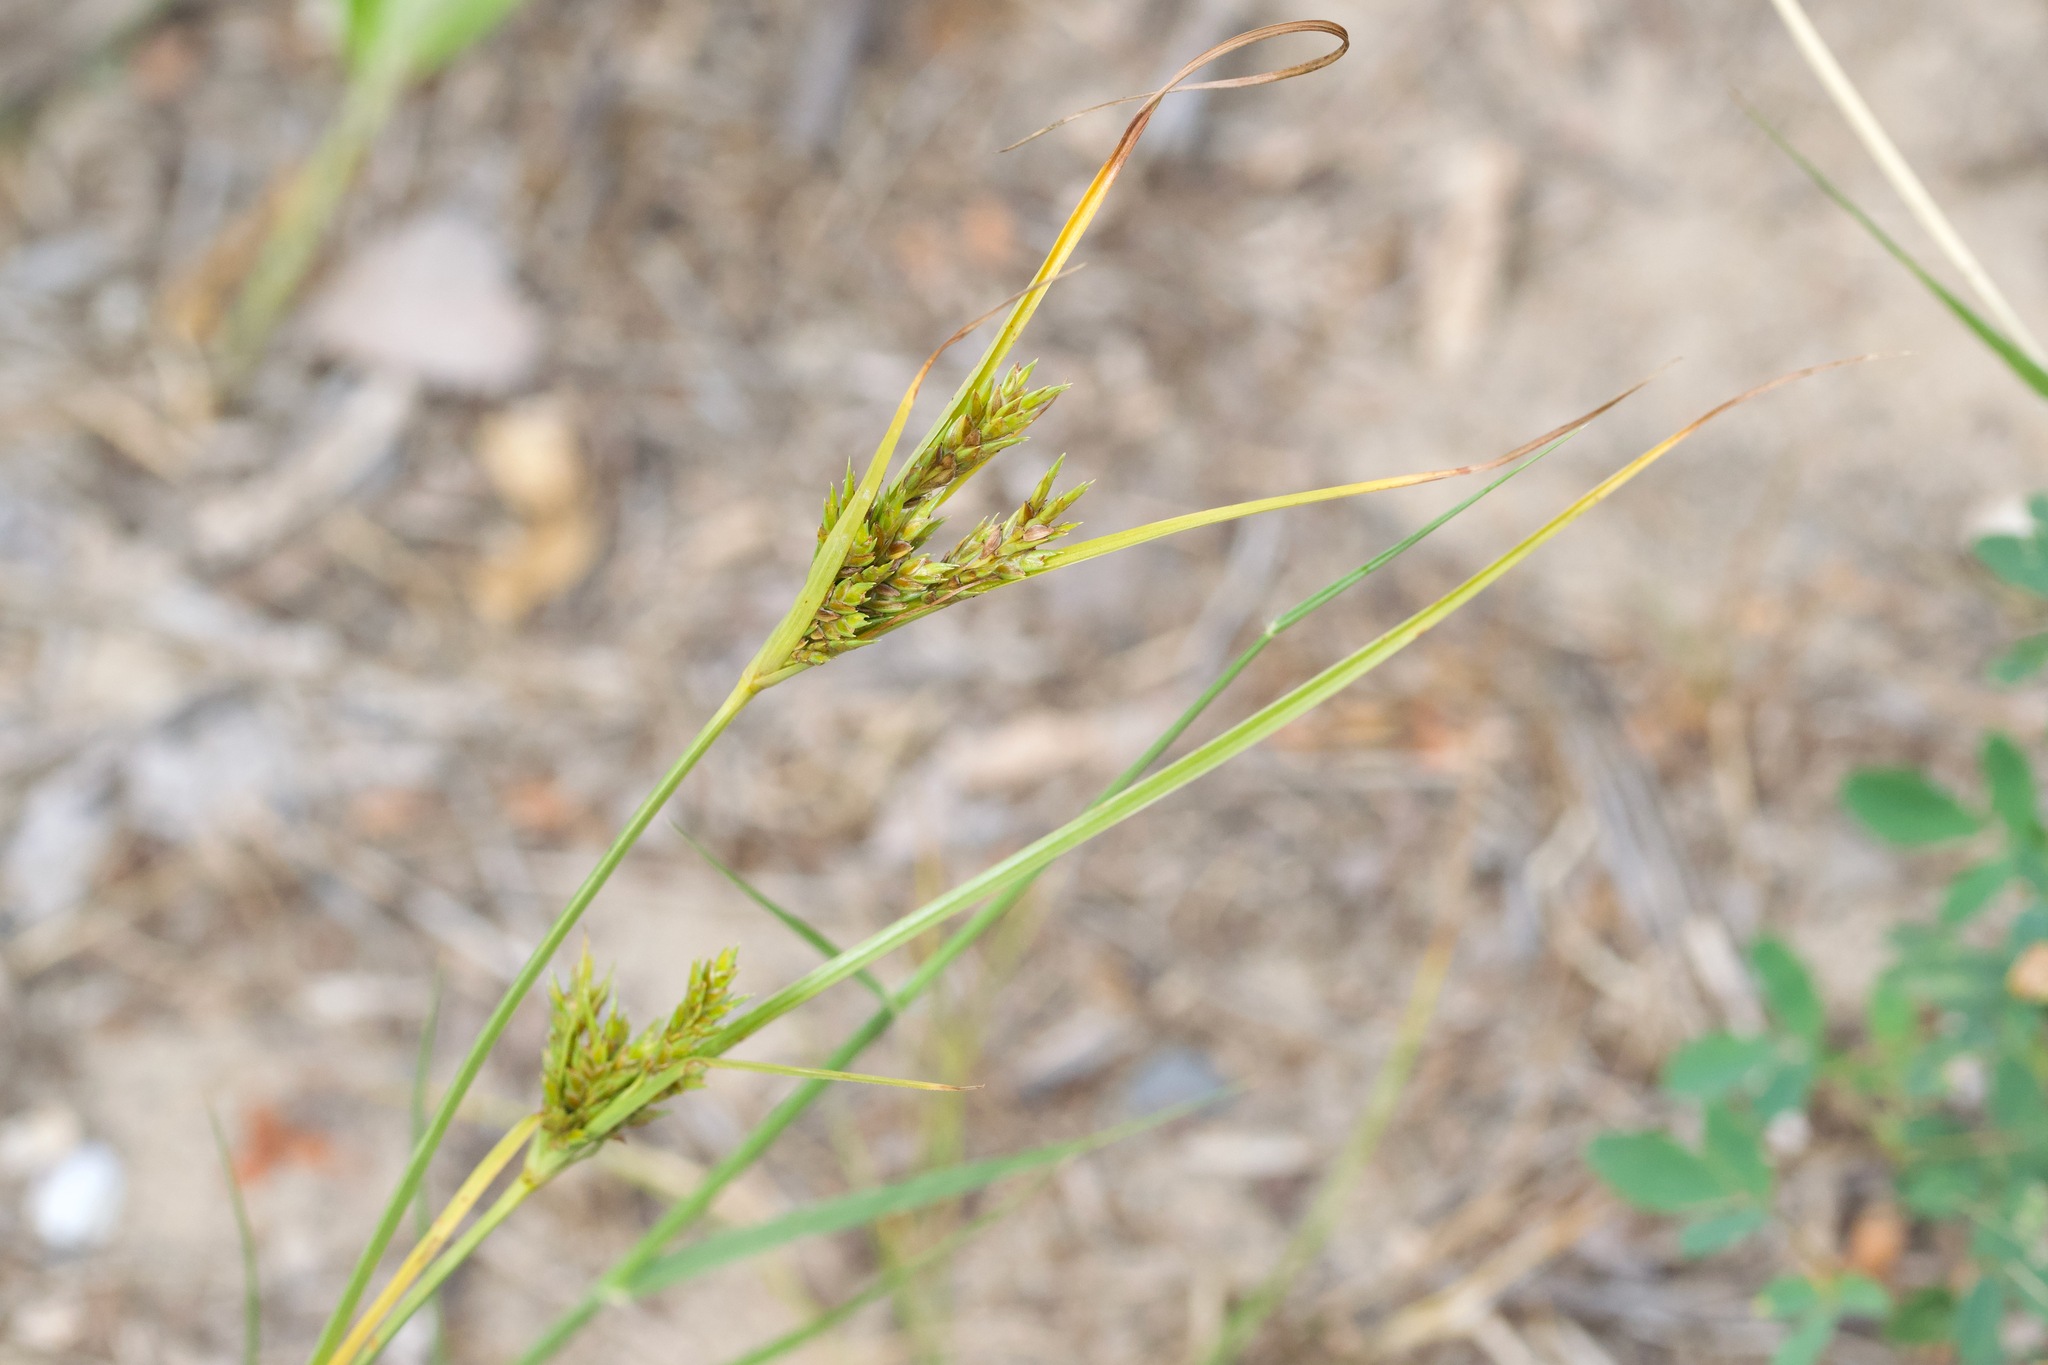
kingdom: Plantae
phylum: Tracheophyta
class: Liliopsida
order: Poales
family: Cyperaceae
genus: Cyperus
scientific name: Cyperus schweinitzii
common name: Schweinitz's cyperus
